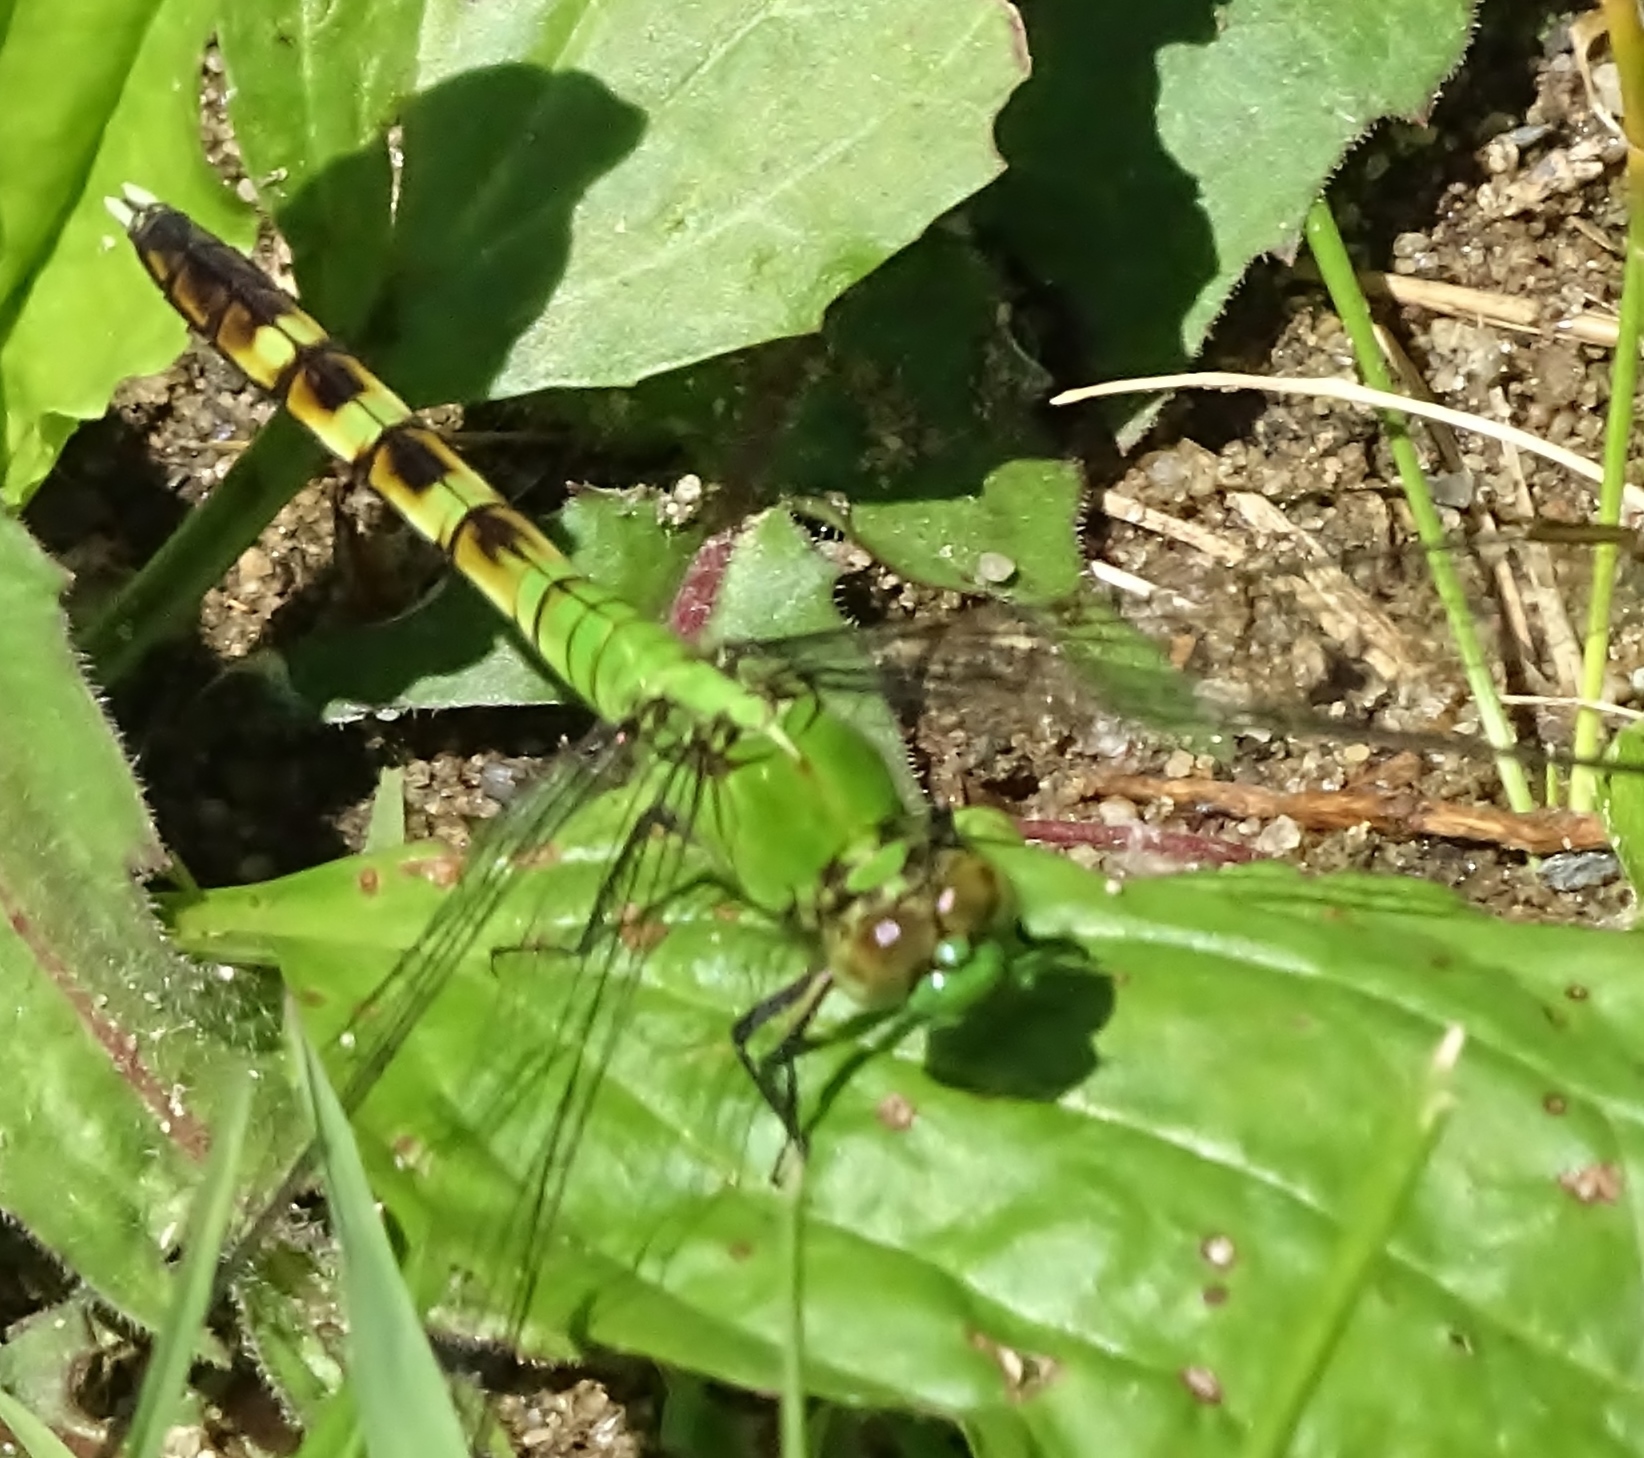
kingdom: Animalia
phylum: Arthropoda
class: Insecta
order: Odonata
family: Libellulidae
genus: Erythemis
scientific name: Erythemis simplicicollis
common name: Eastern pondhawk
